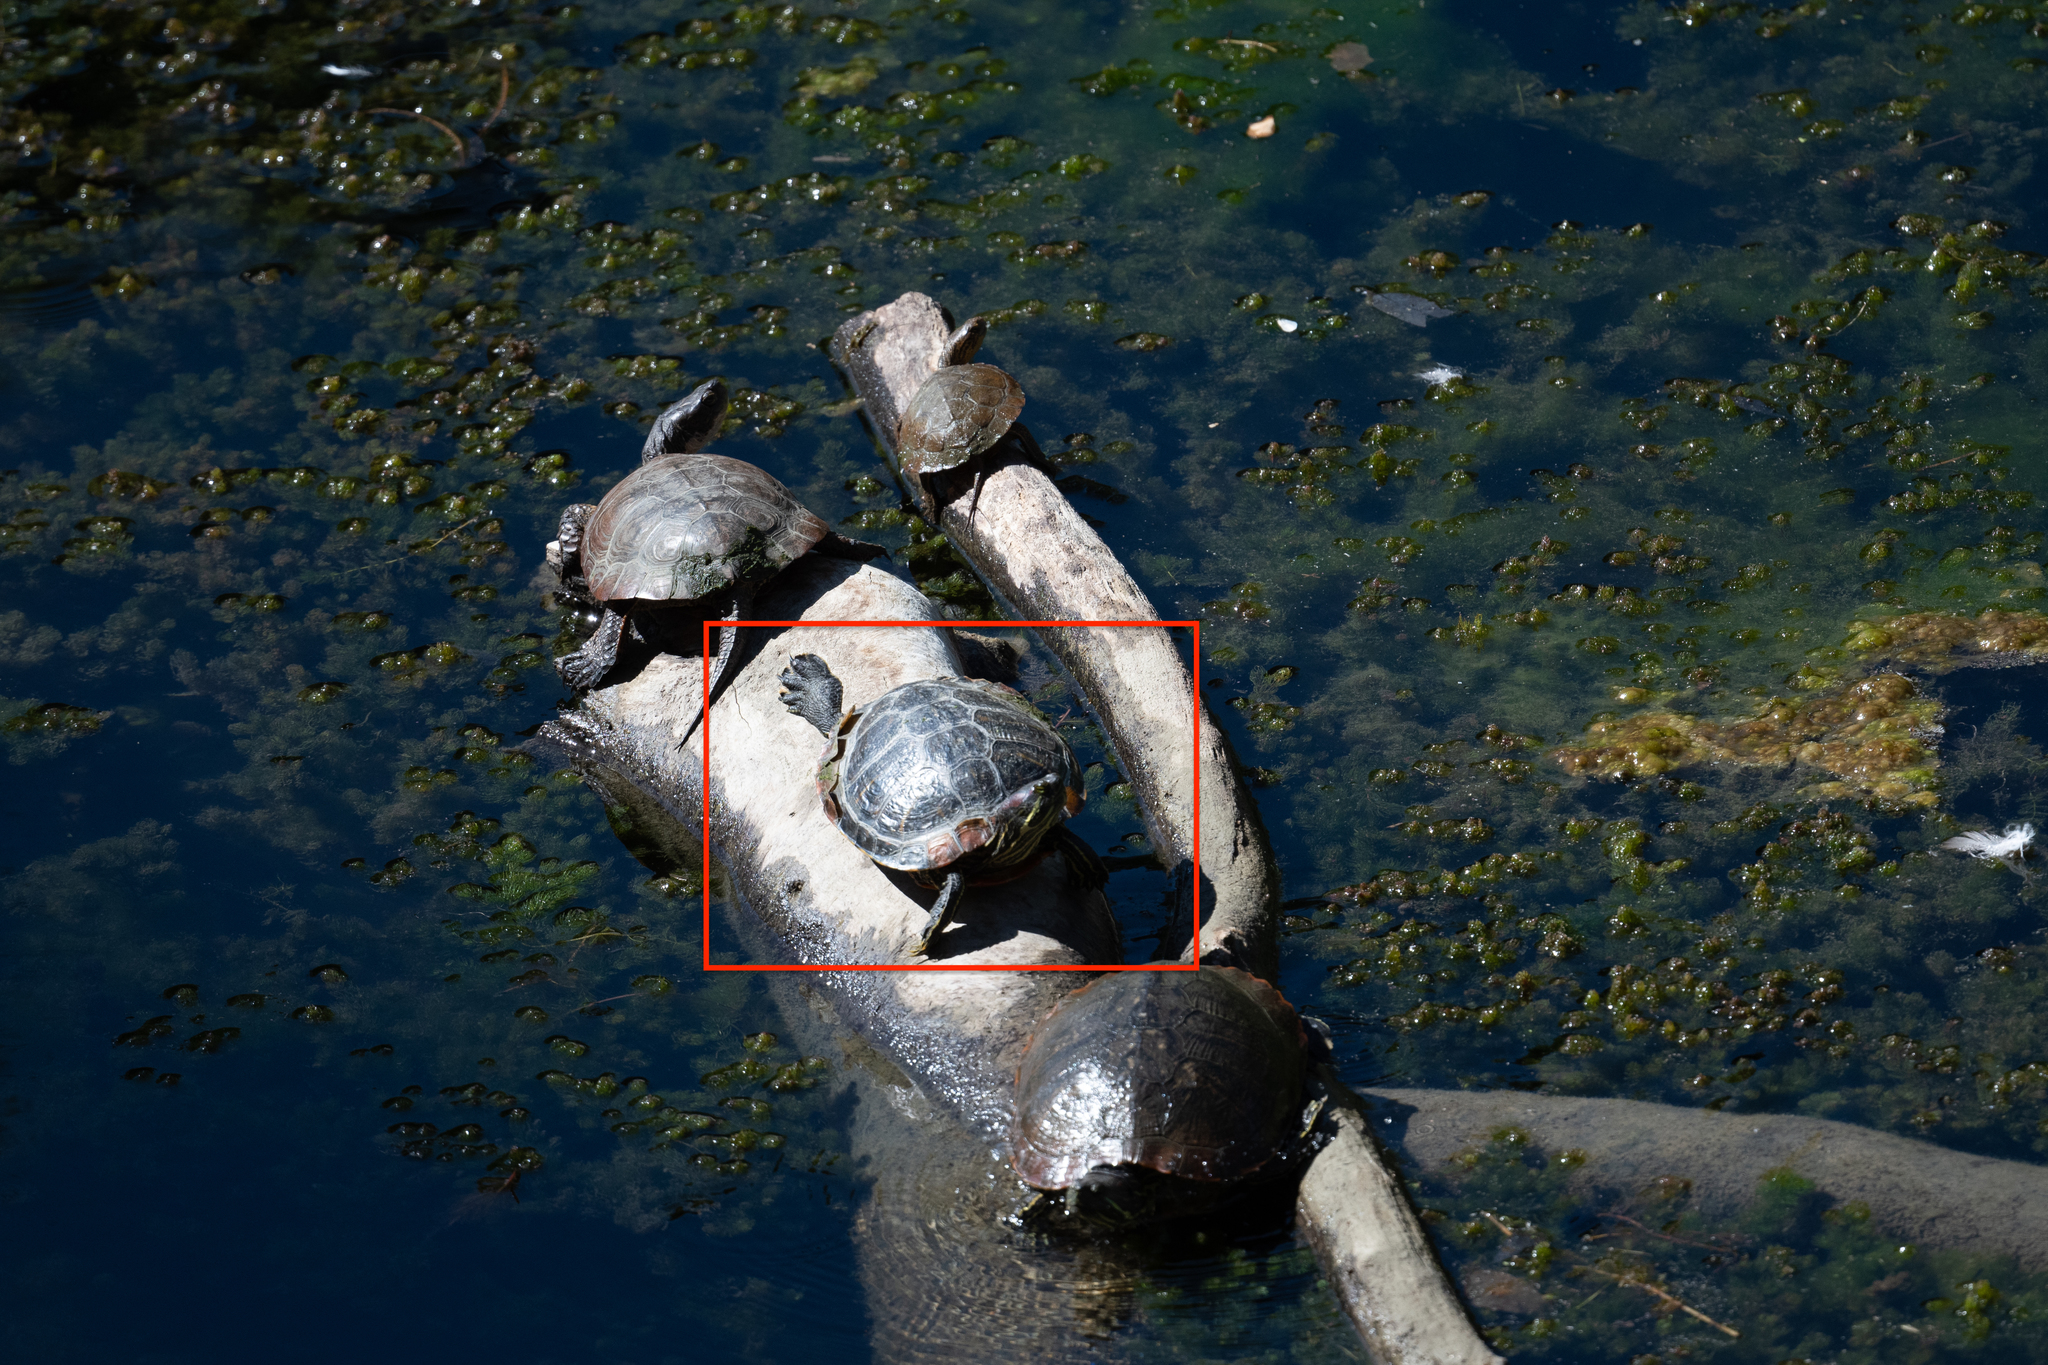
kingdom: Animalia
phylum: Chordata
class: Testudines
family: Emydidae
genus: Trachemys
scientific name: Trachemys scripta
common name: Slider
